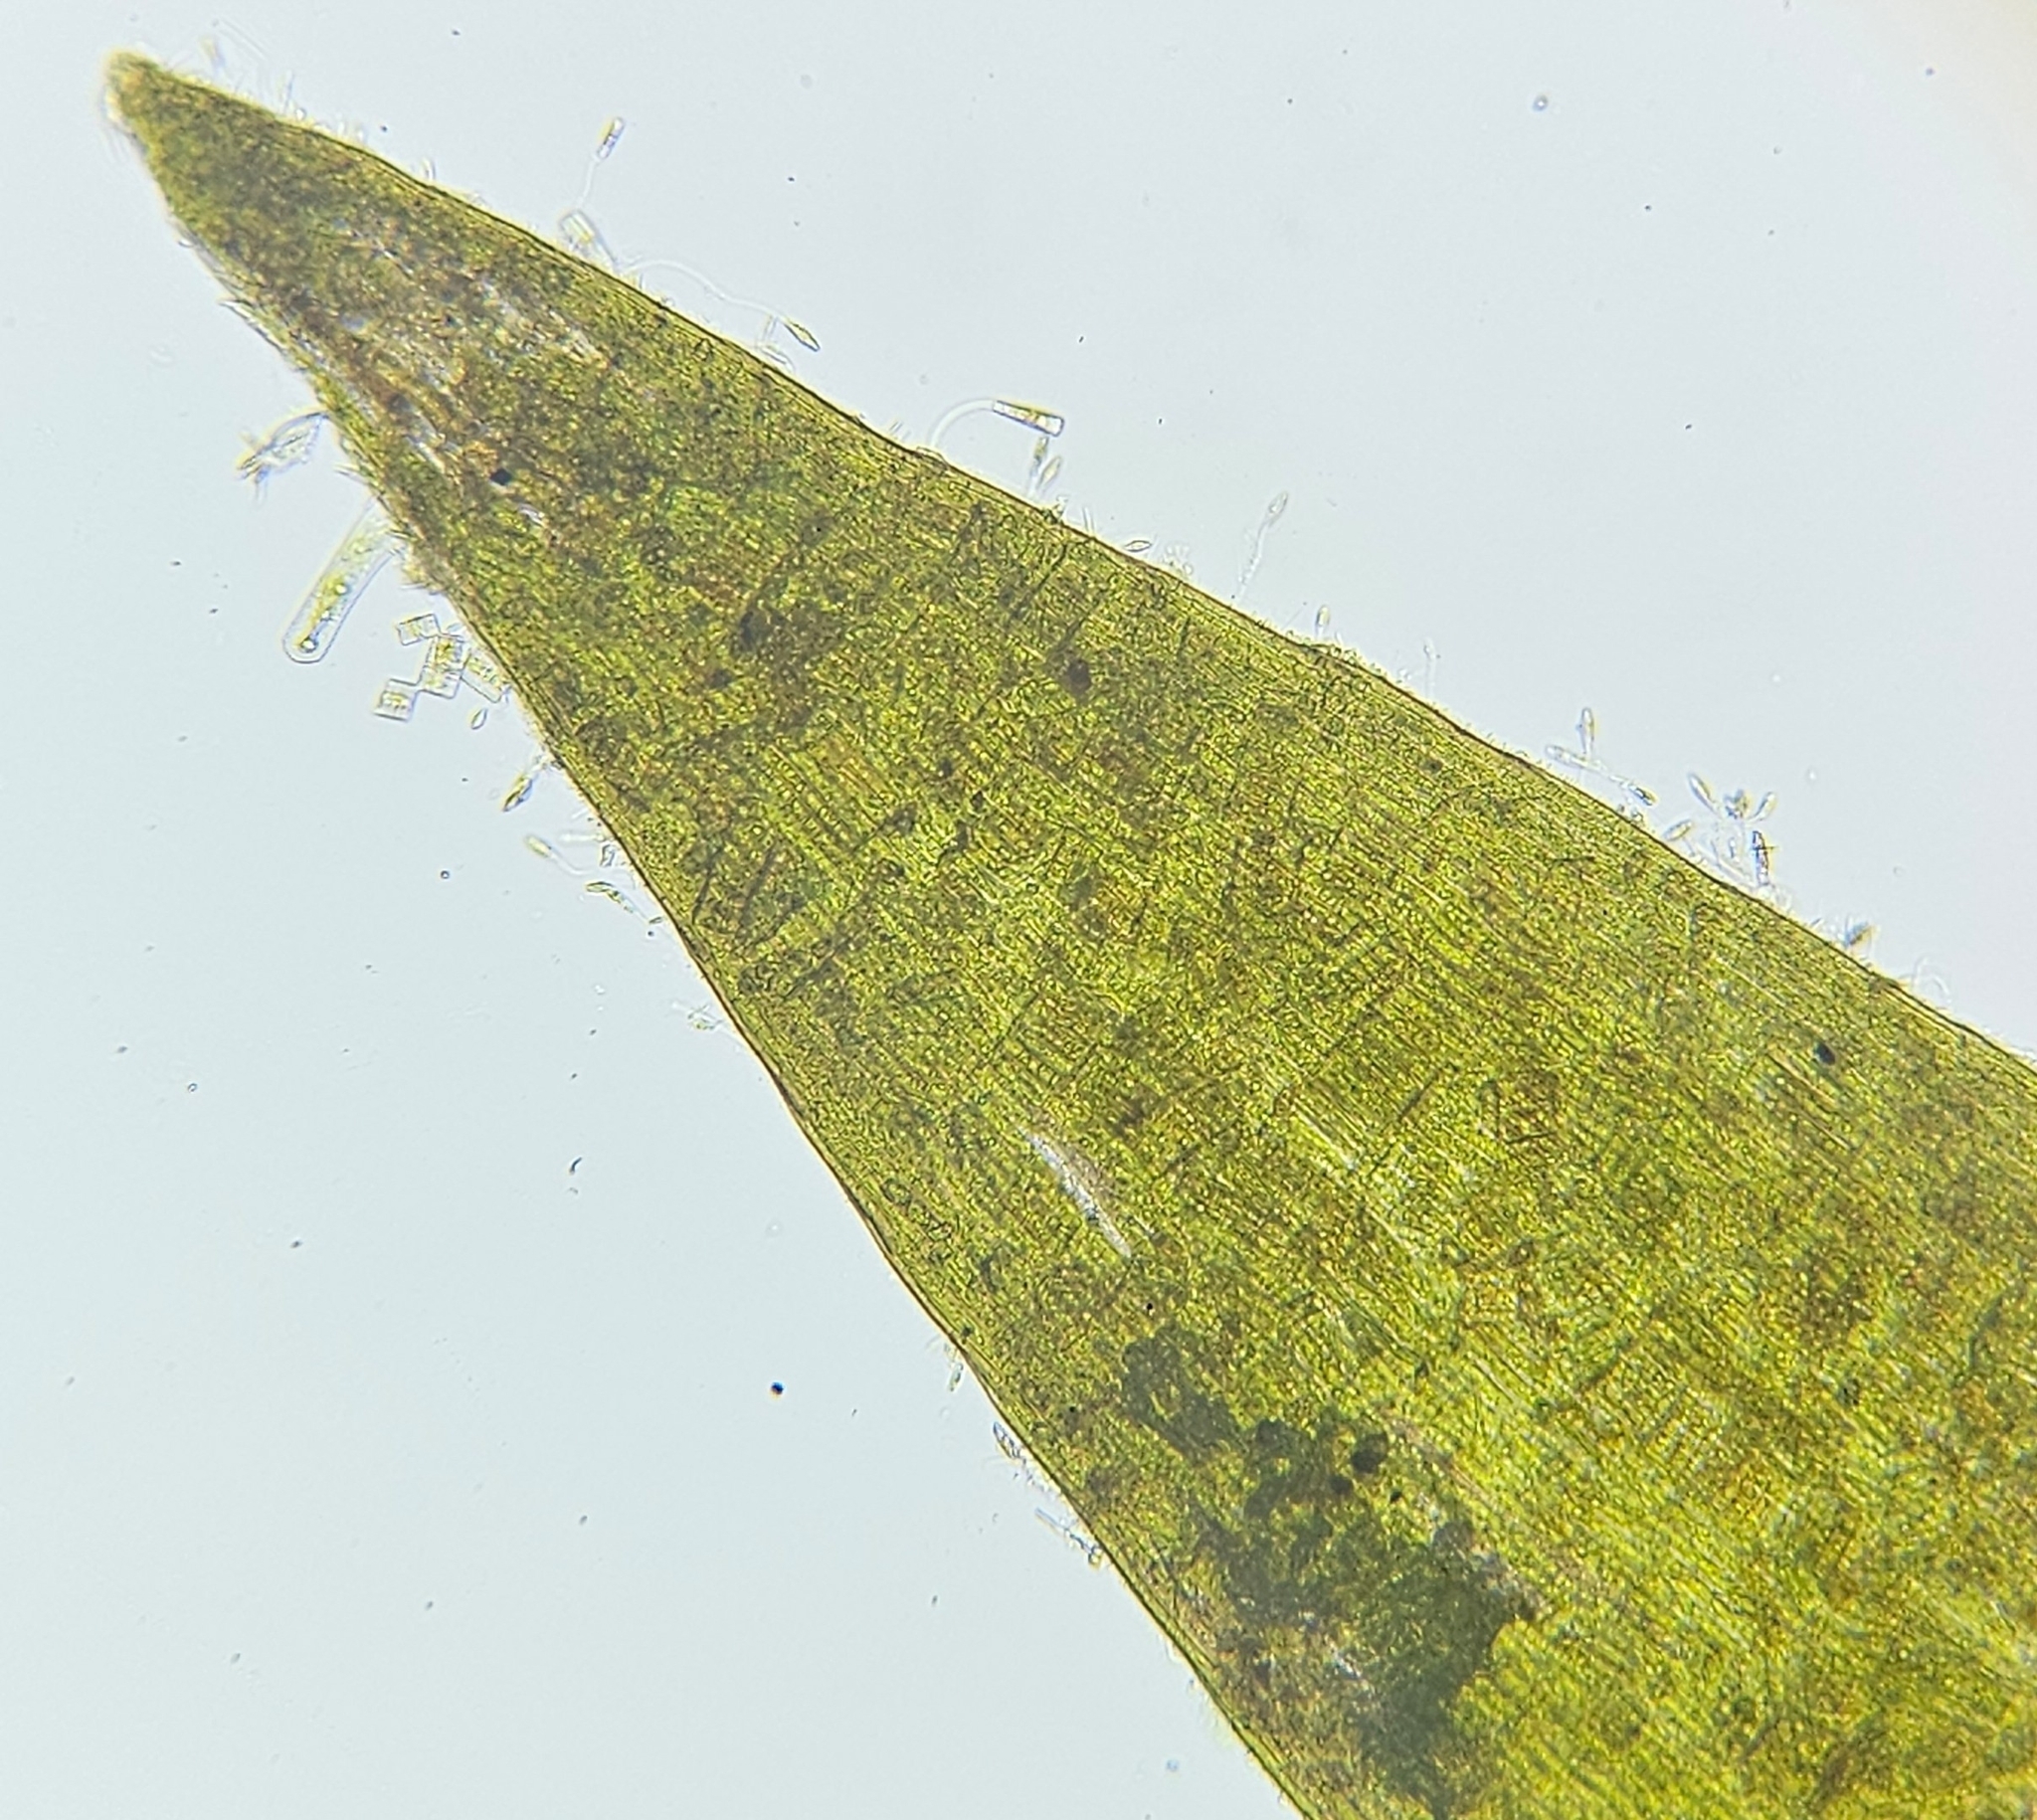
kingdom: Plantae
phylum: Bryophyta
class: Bryopsida
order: Hypnales
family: Fontinalaceae
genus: Fontinalis
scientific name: Fontinalis squamosa
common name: Alpine water-moss
